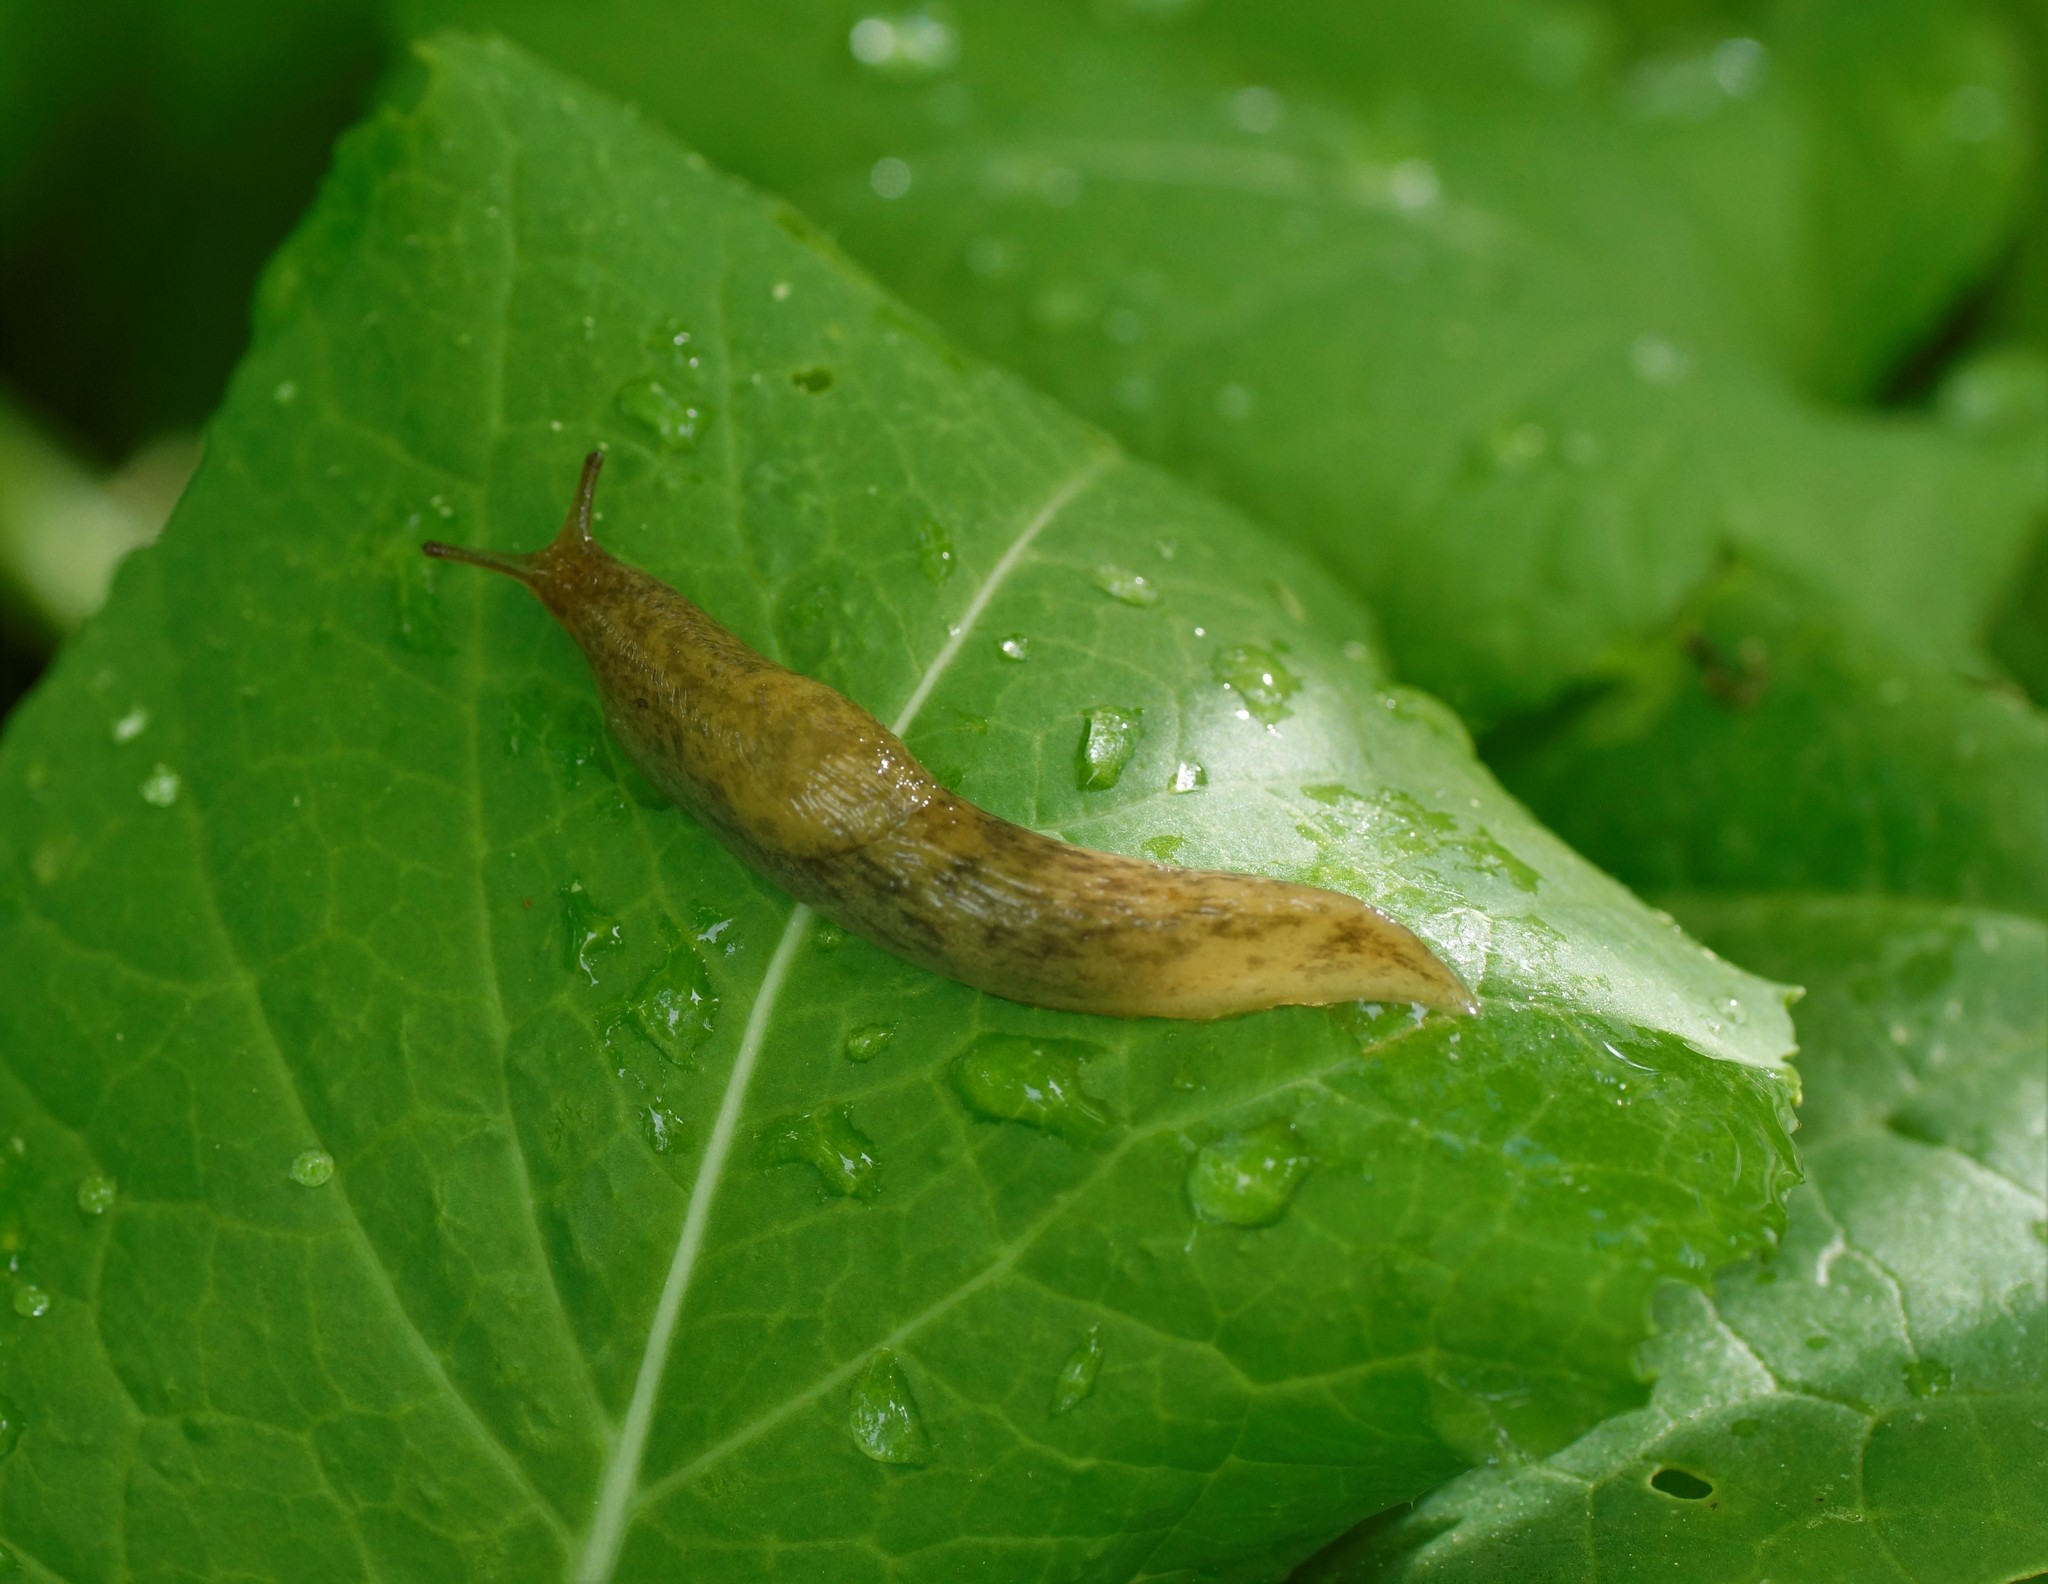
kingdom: Animalia
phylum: Mollusca
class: Gastropoda
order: Stylommatophora
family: Agriolimacidae
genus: Deroceras
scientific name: Deroceras reticulatum
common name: Gray field slug
